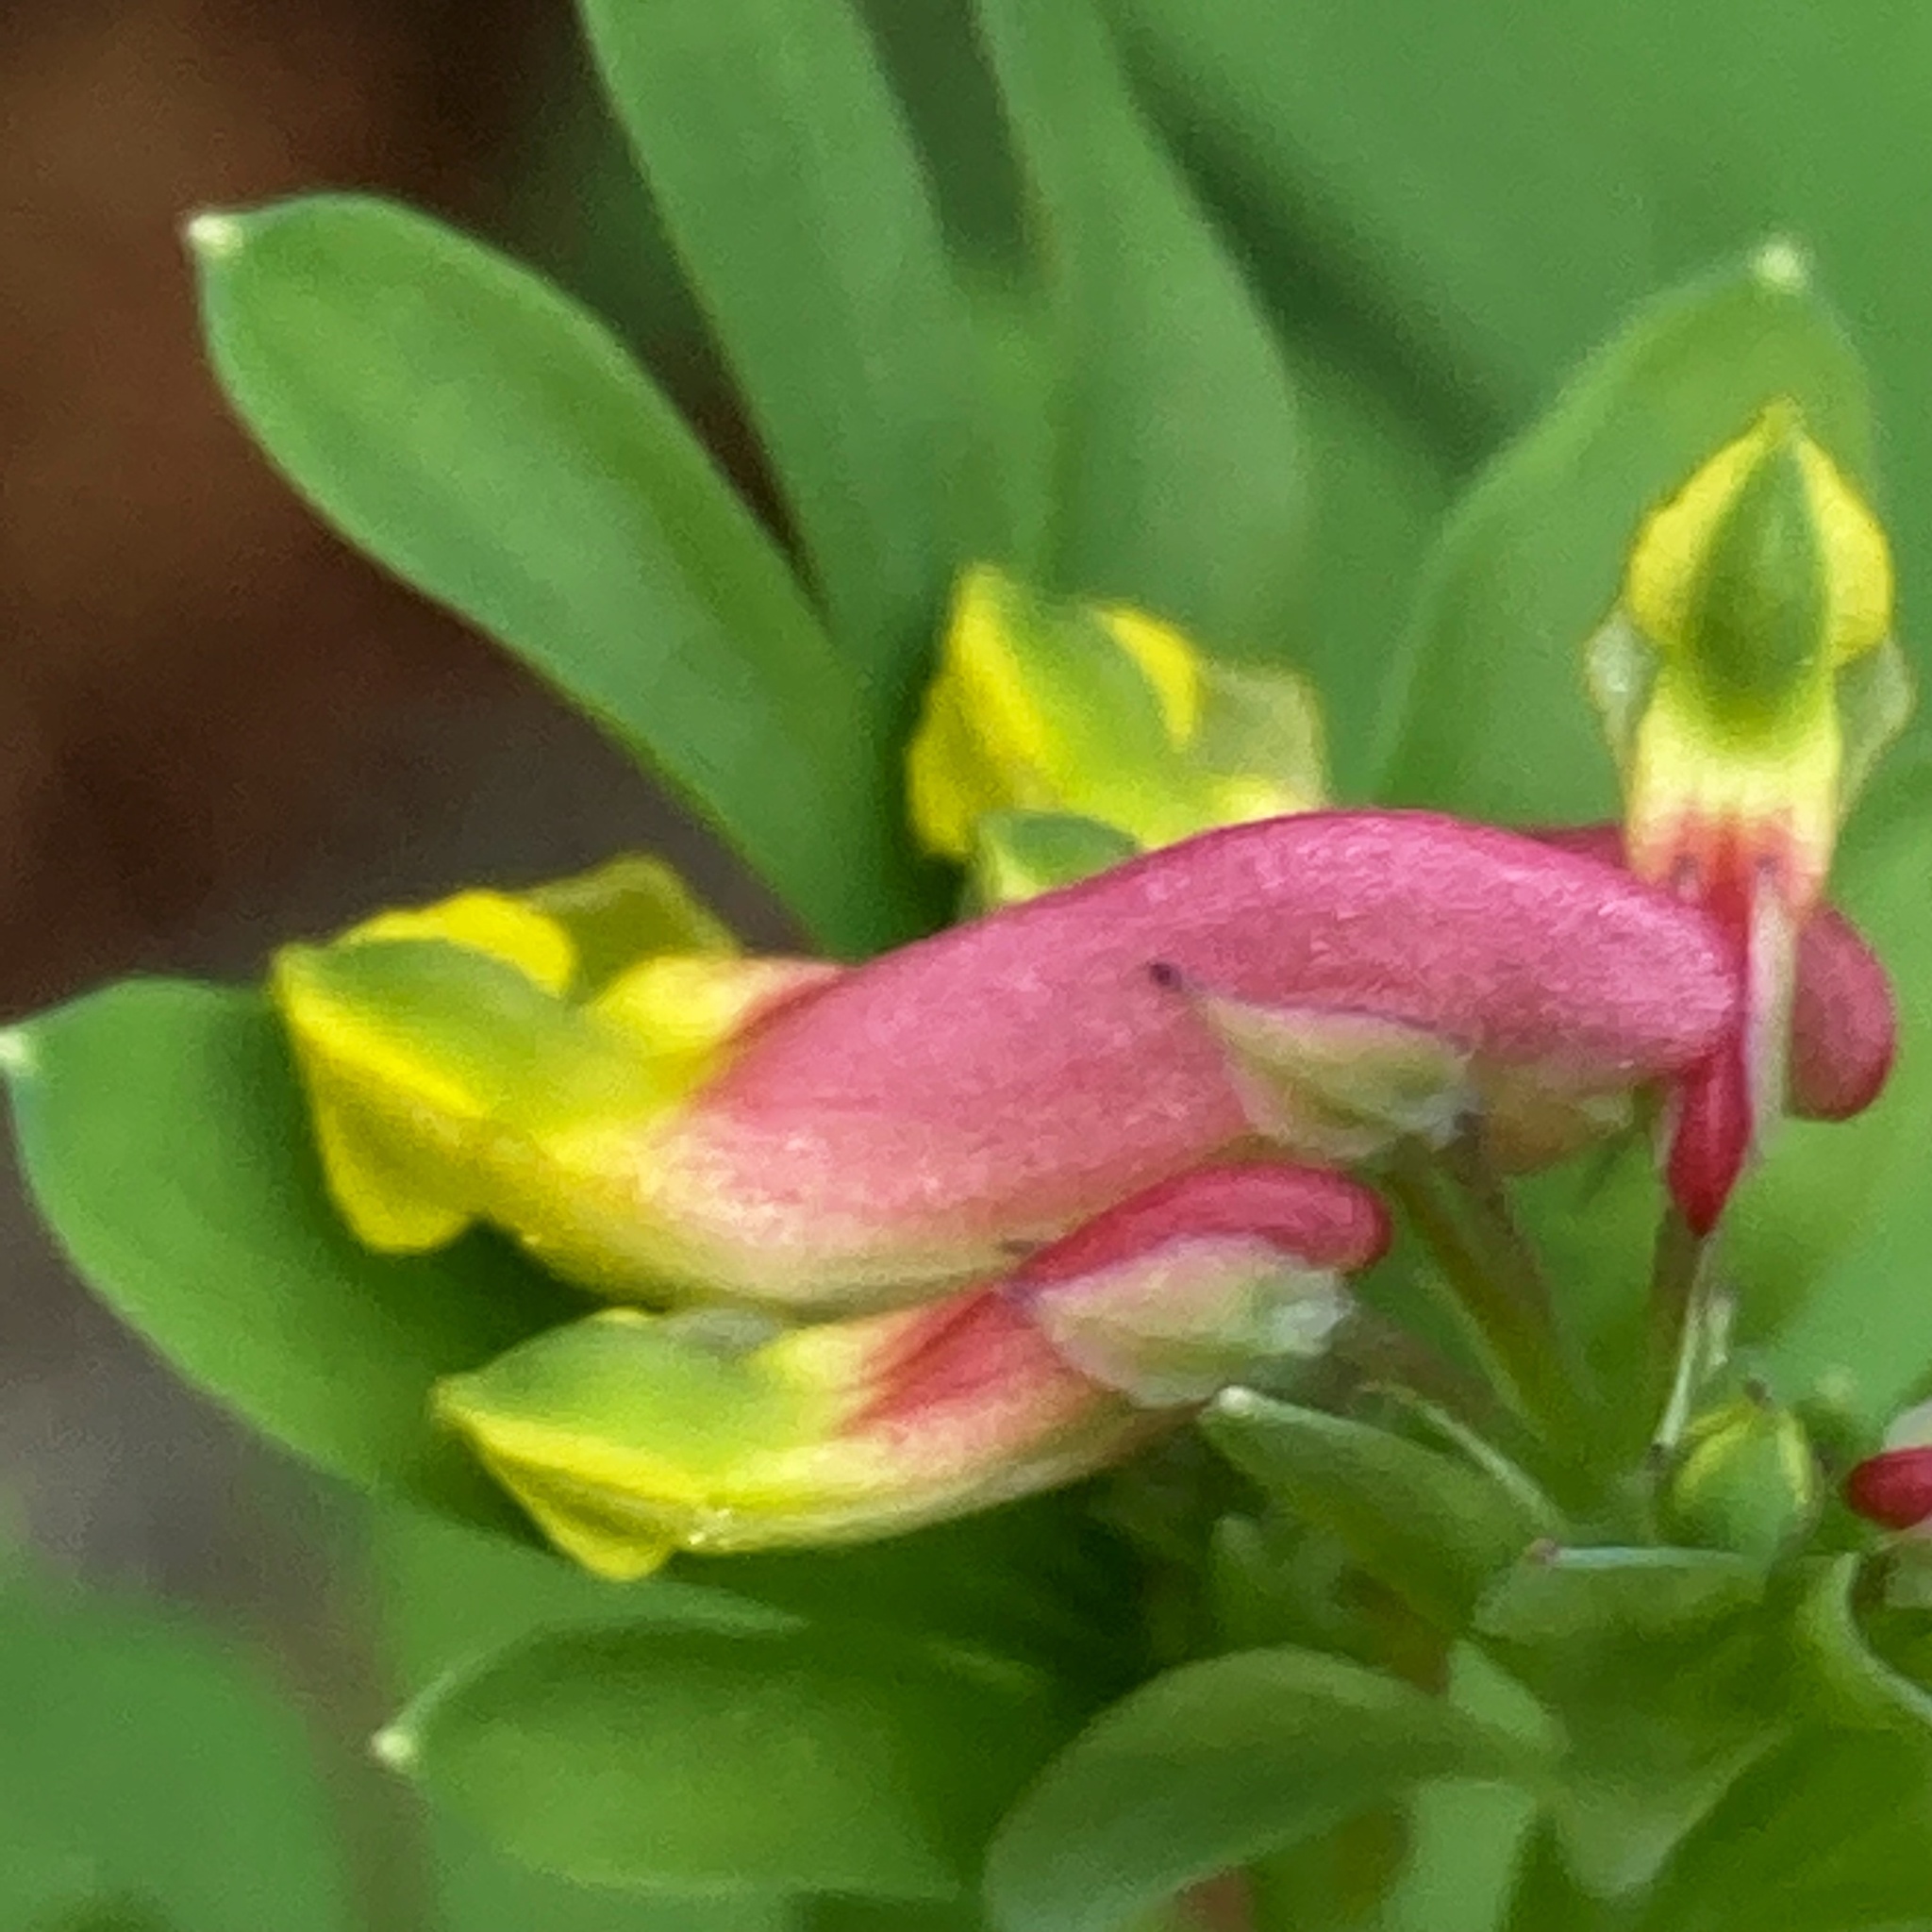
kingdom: Plantae
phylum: Tracheophyta
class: Magnoliopsida
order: Ranunculales
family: Papaveraceae
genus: Capnoides
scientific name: Capnoides sempervirens
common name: Rock harlequin
